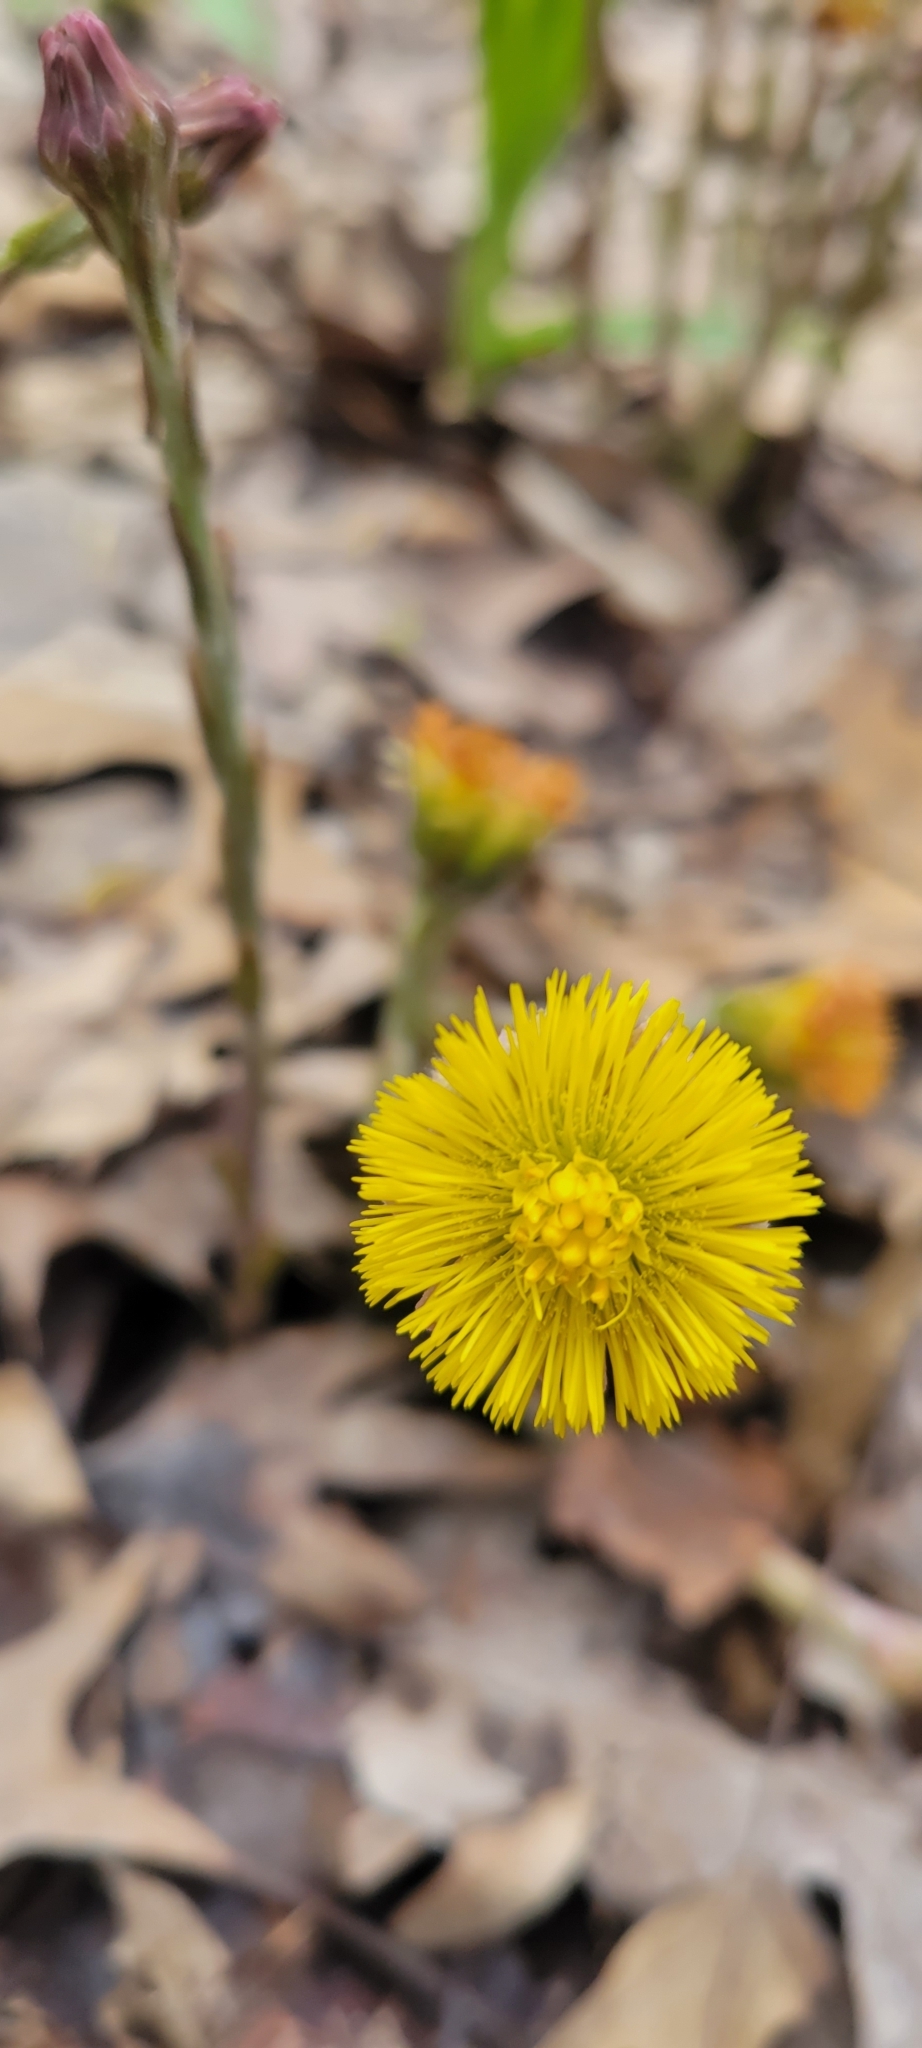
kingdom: Plantae
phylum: Tracheophyta
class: Magnoliopsida
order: Asterales
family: Asteraceae
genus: Tussilago
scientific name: Tussilago farfara
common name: Coltsfoot
